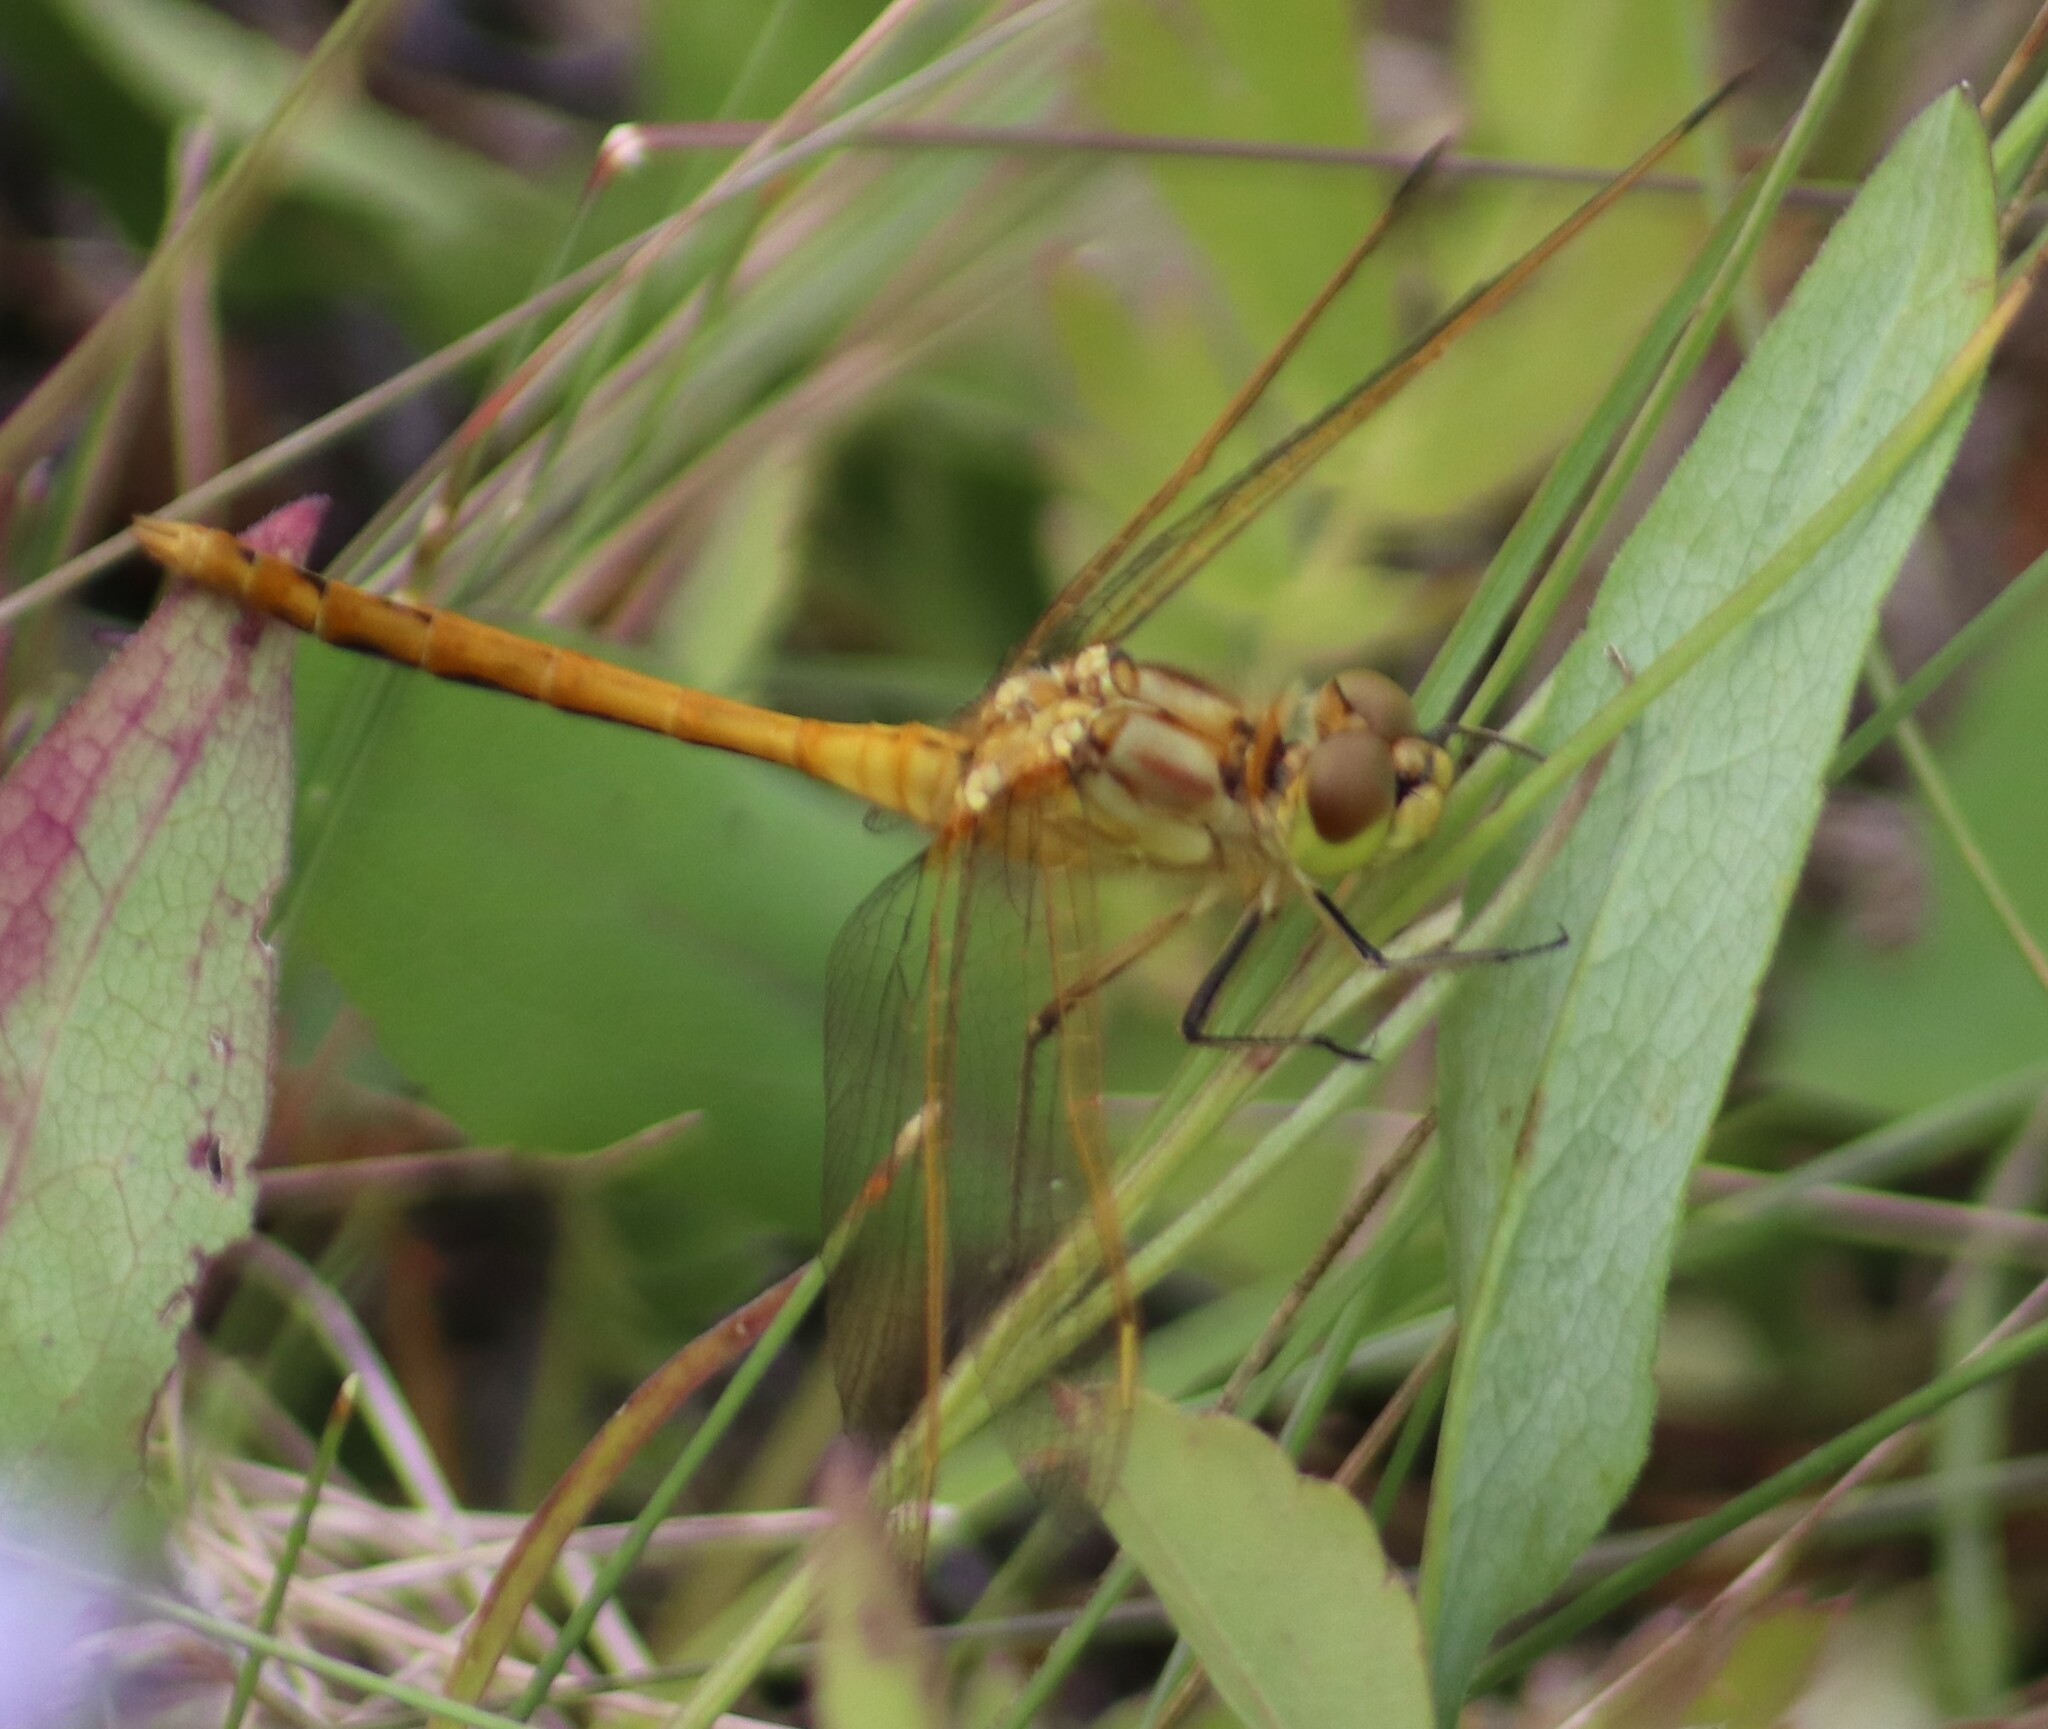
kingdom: Animalia
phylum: Arthropoda
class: Insecta
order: Odonata
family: Libellulidae
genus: Sympetrum
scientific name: Sympetrum costiferum
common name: Saffron-winged meadowhawk
